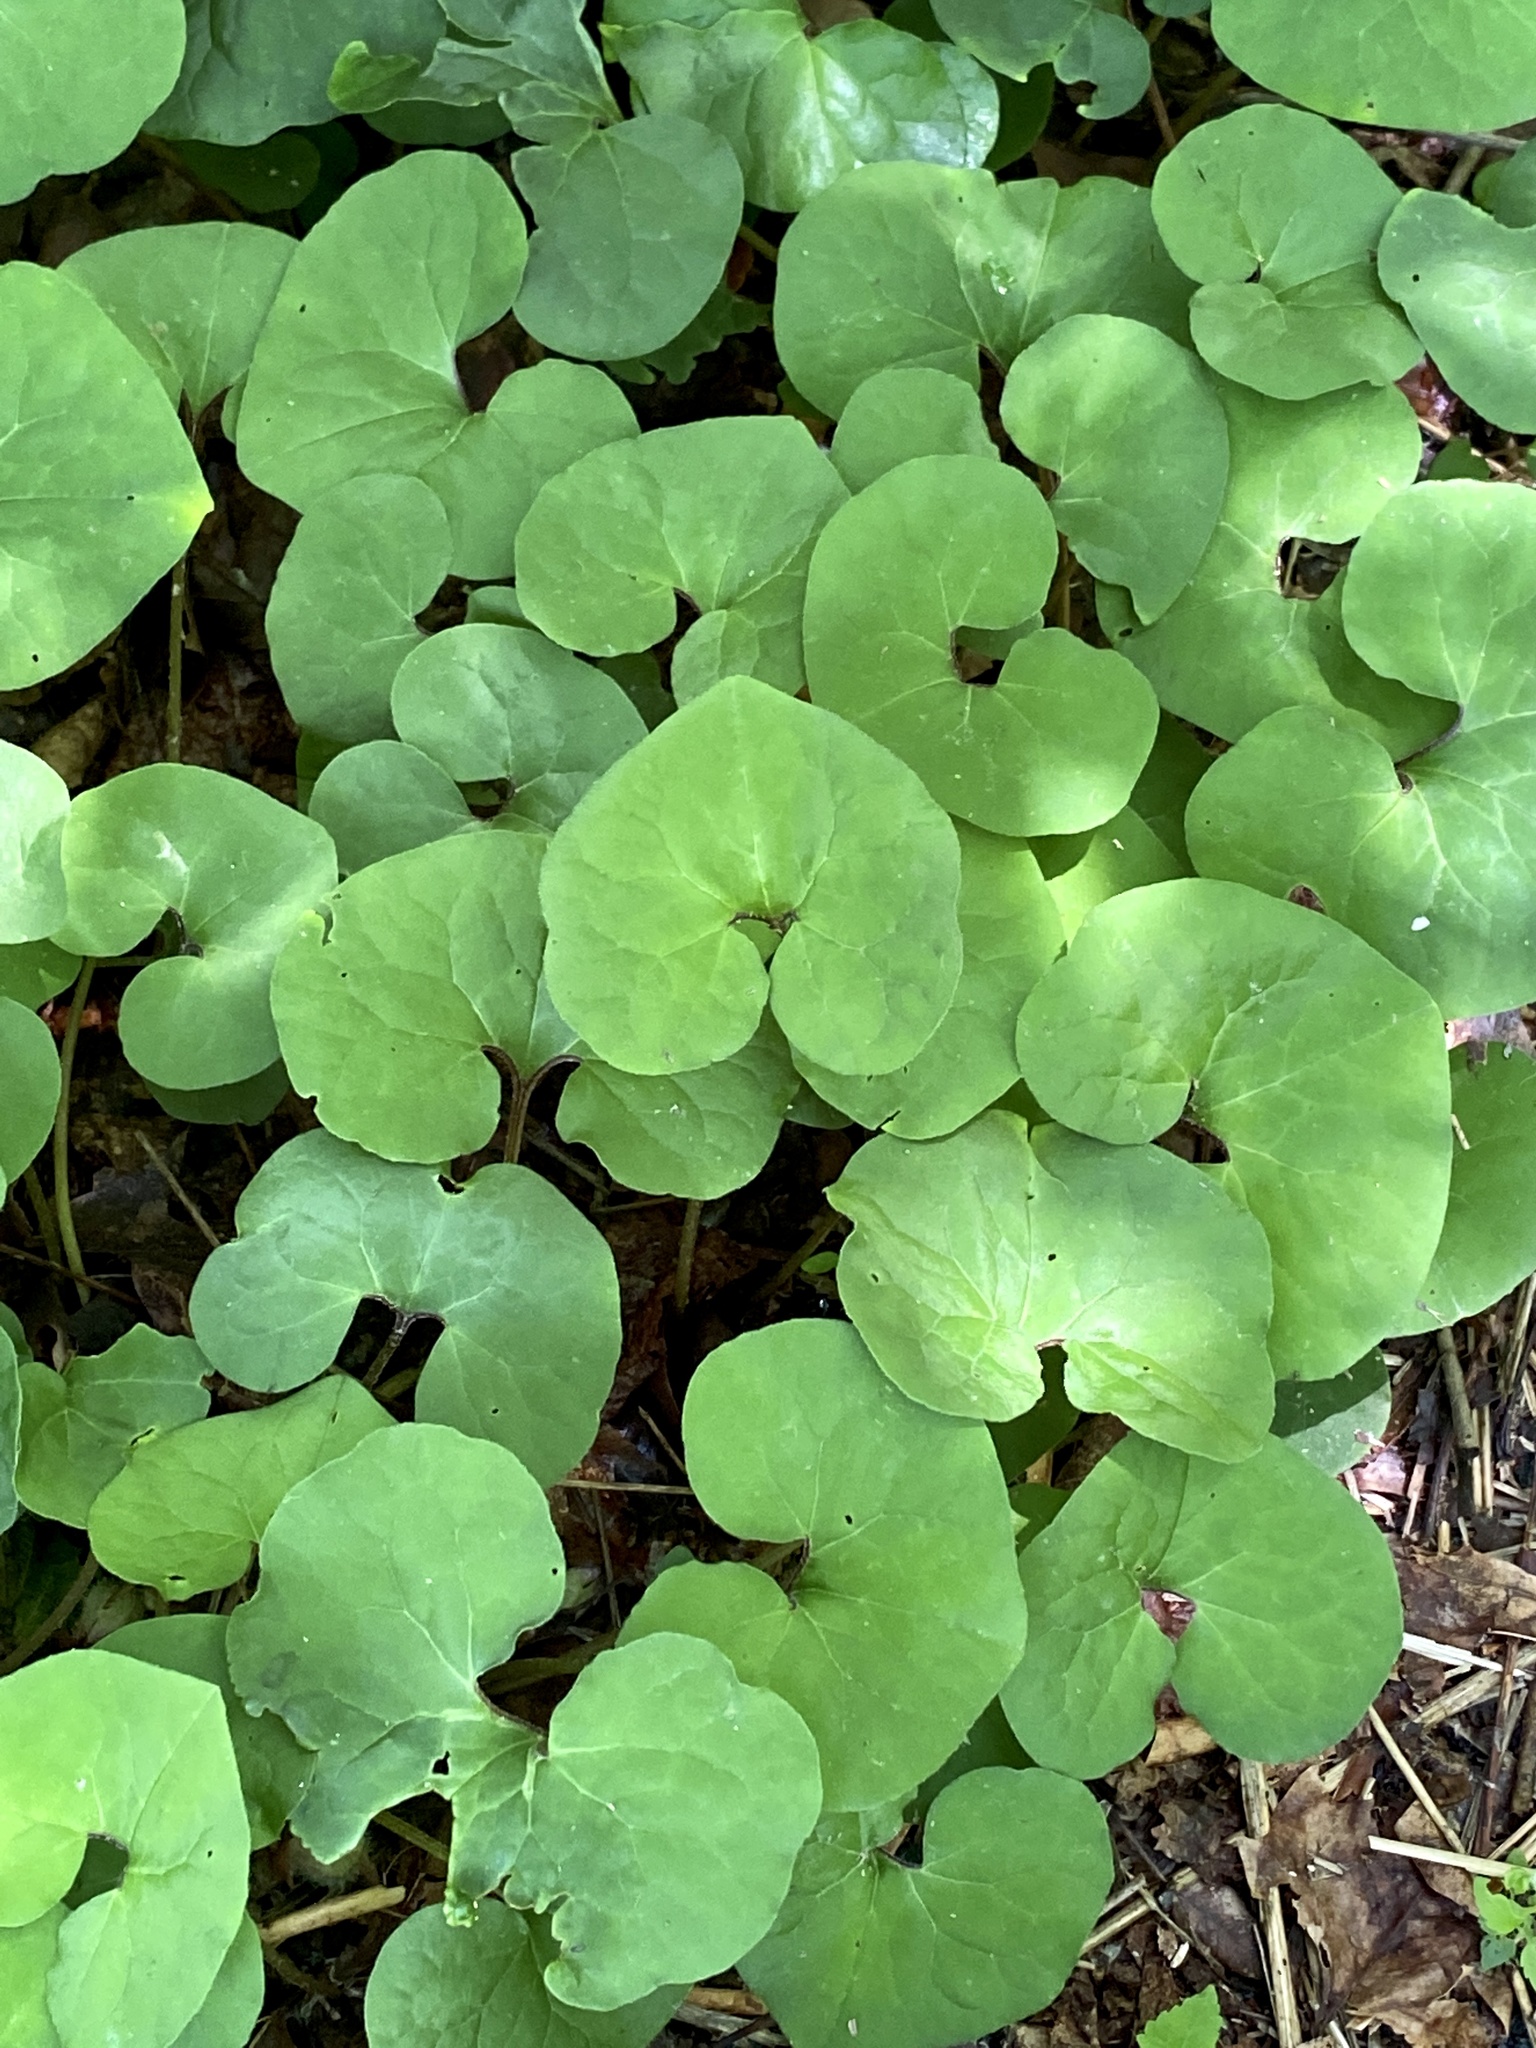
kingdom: Plantae
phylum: Tracheophyta
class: Magnoliopsida
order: Piperales
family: Aristolochiaceae
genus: Asarum
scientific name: Asarum canadense
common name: Wild ginger
